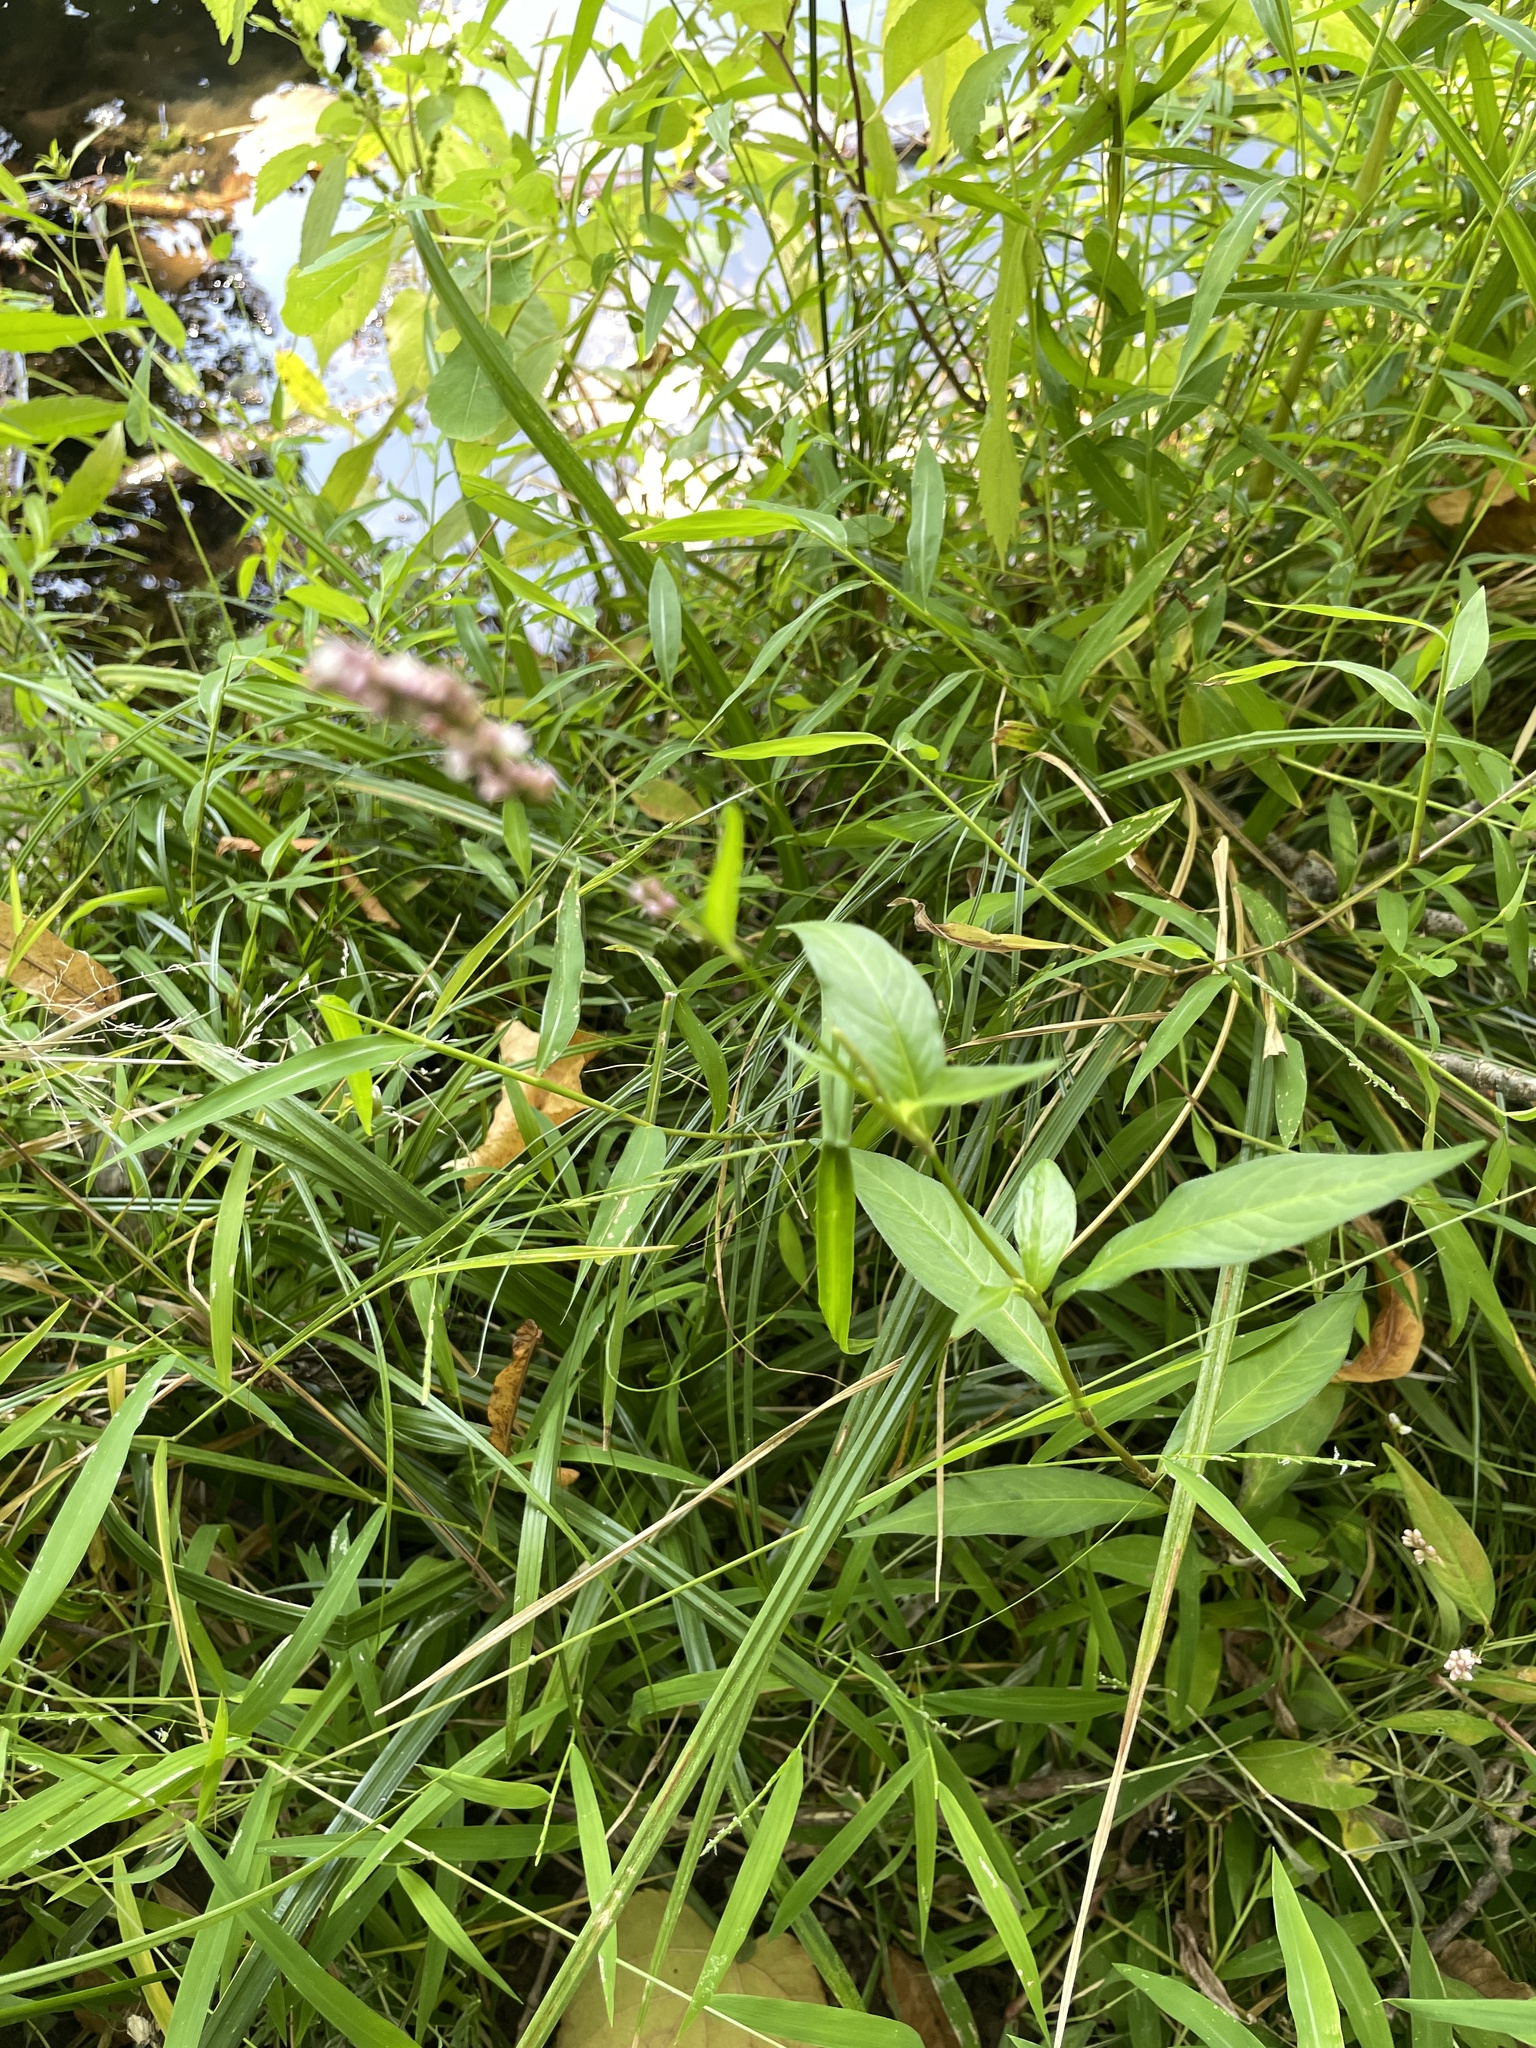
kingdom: Plantae
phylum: Tracheophyta
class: Magnoliopsida
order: Caryophyllales
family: Polygonaceae
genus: Persicaria
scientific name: Persicaria longiseta
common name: Bristly lady's-thumb
